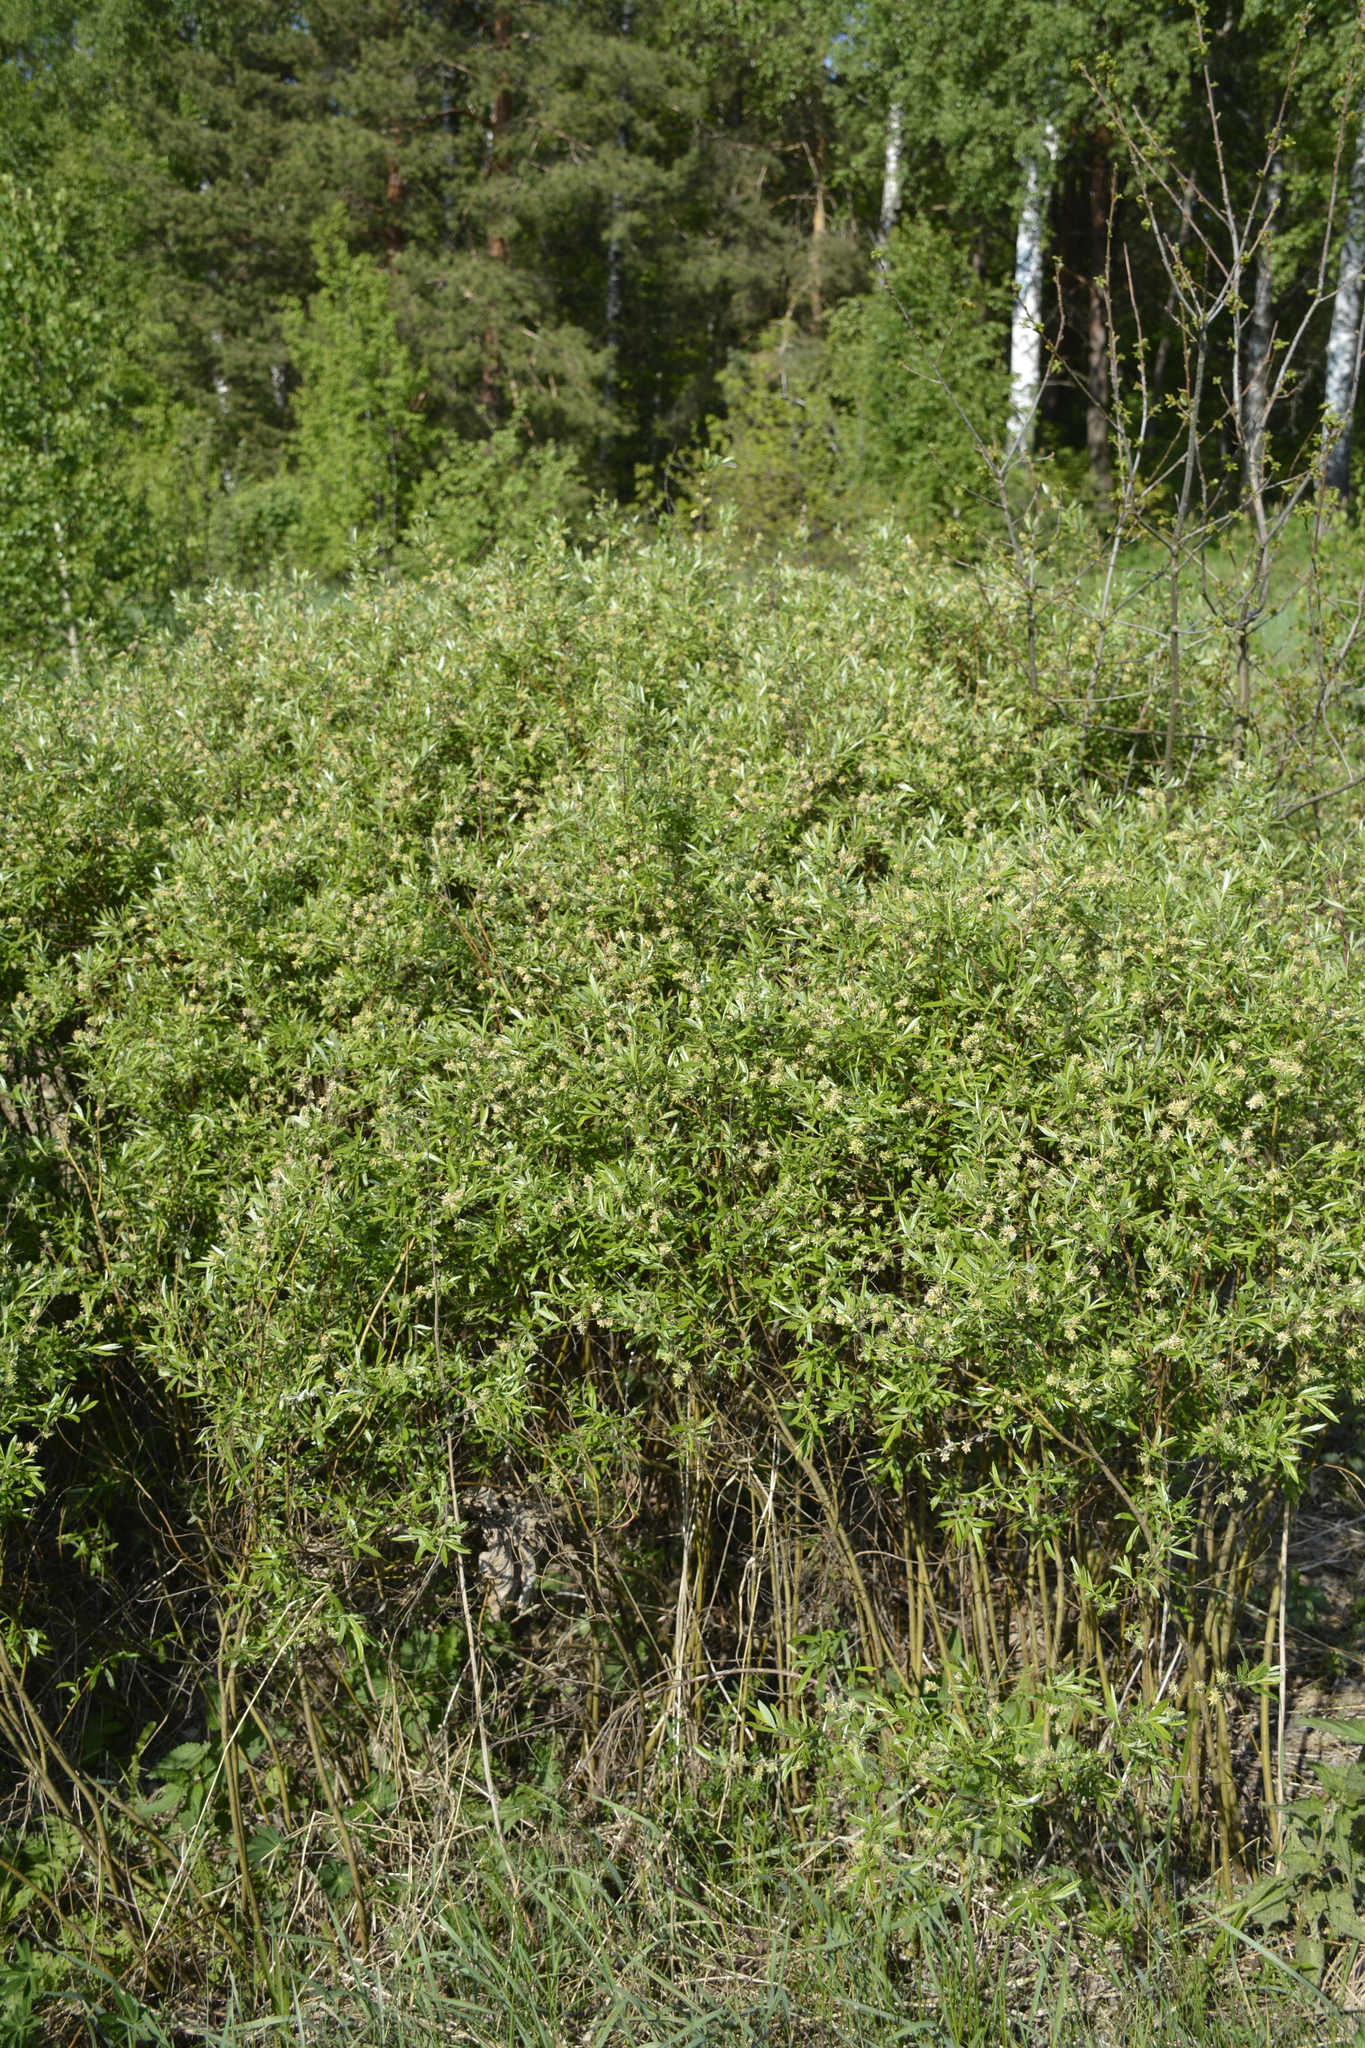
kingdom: Plantae
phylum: Tracheophyta
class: Magnoliopsida
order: Malpighiales
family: Salicaceae
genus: Salix
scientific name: Salix rosmarinifolia
